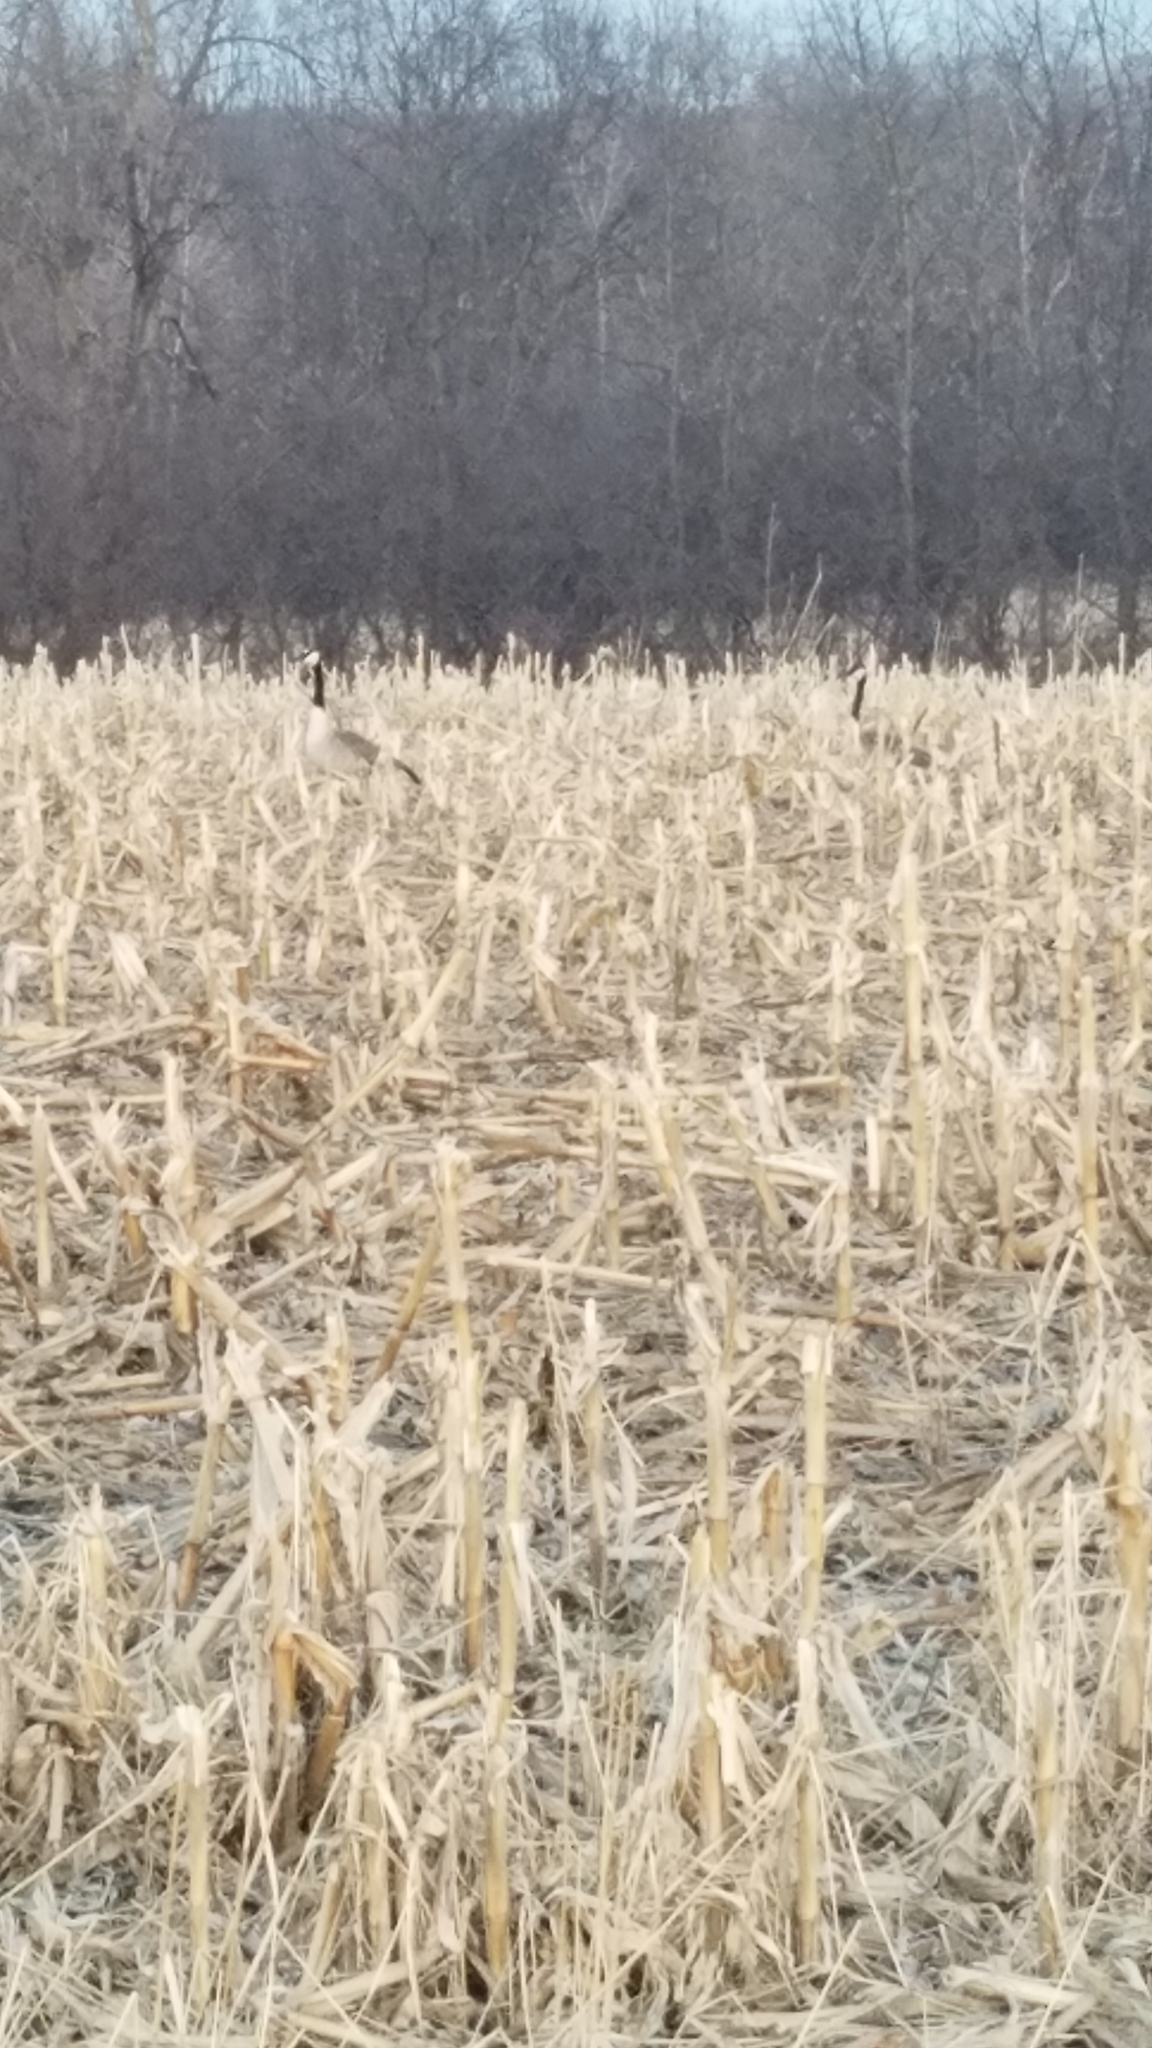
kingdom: Animalia
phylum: Chordata
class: Aves
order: Anseriformes
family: Anatidae
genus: Branta
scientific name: Branta canadensis
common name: Canada goose
